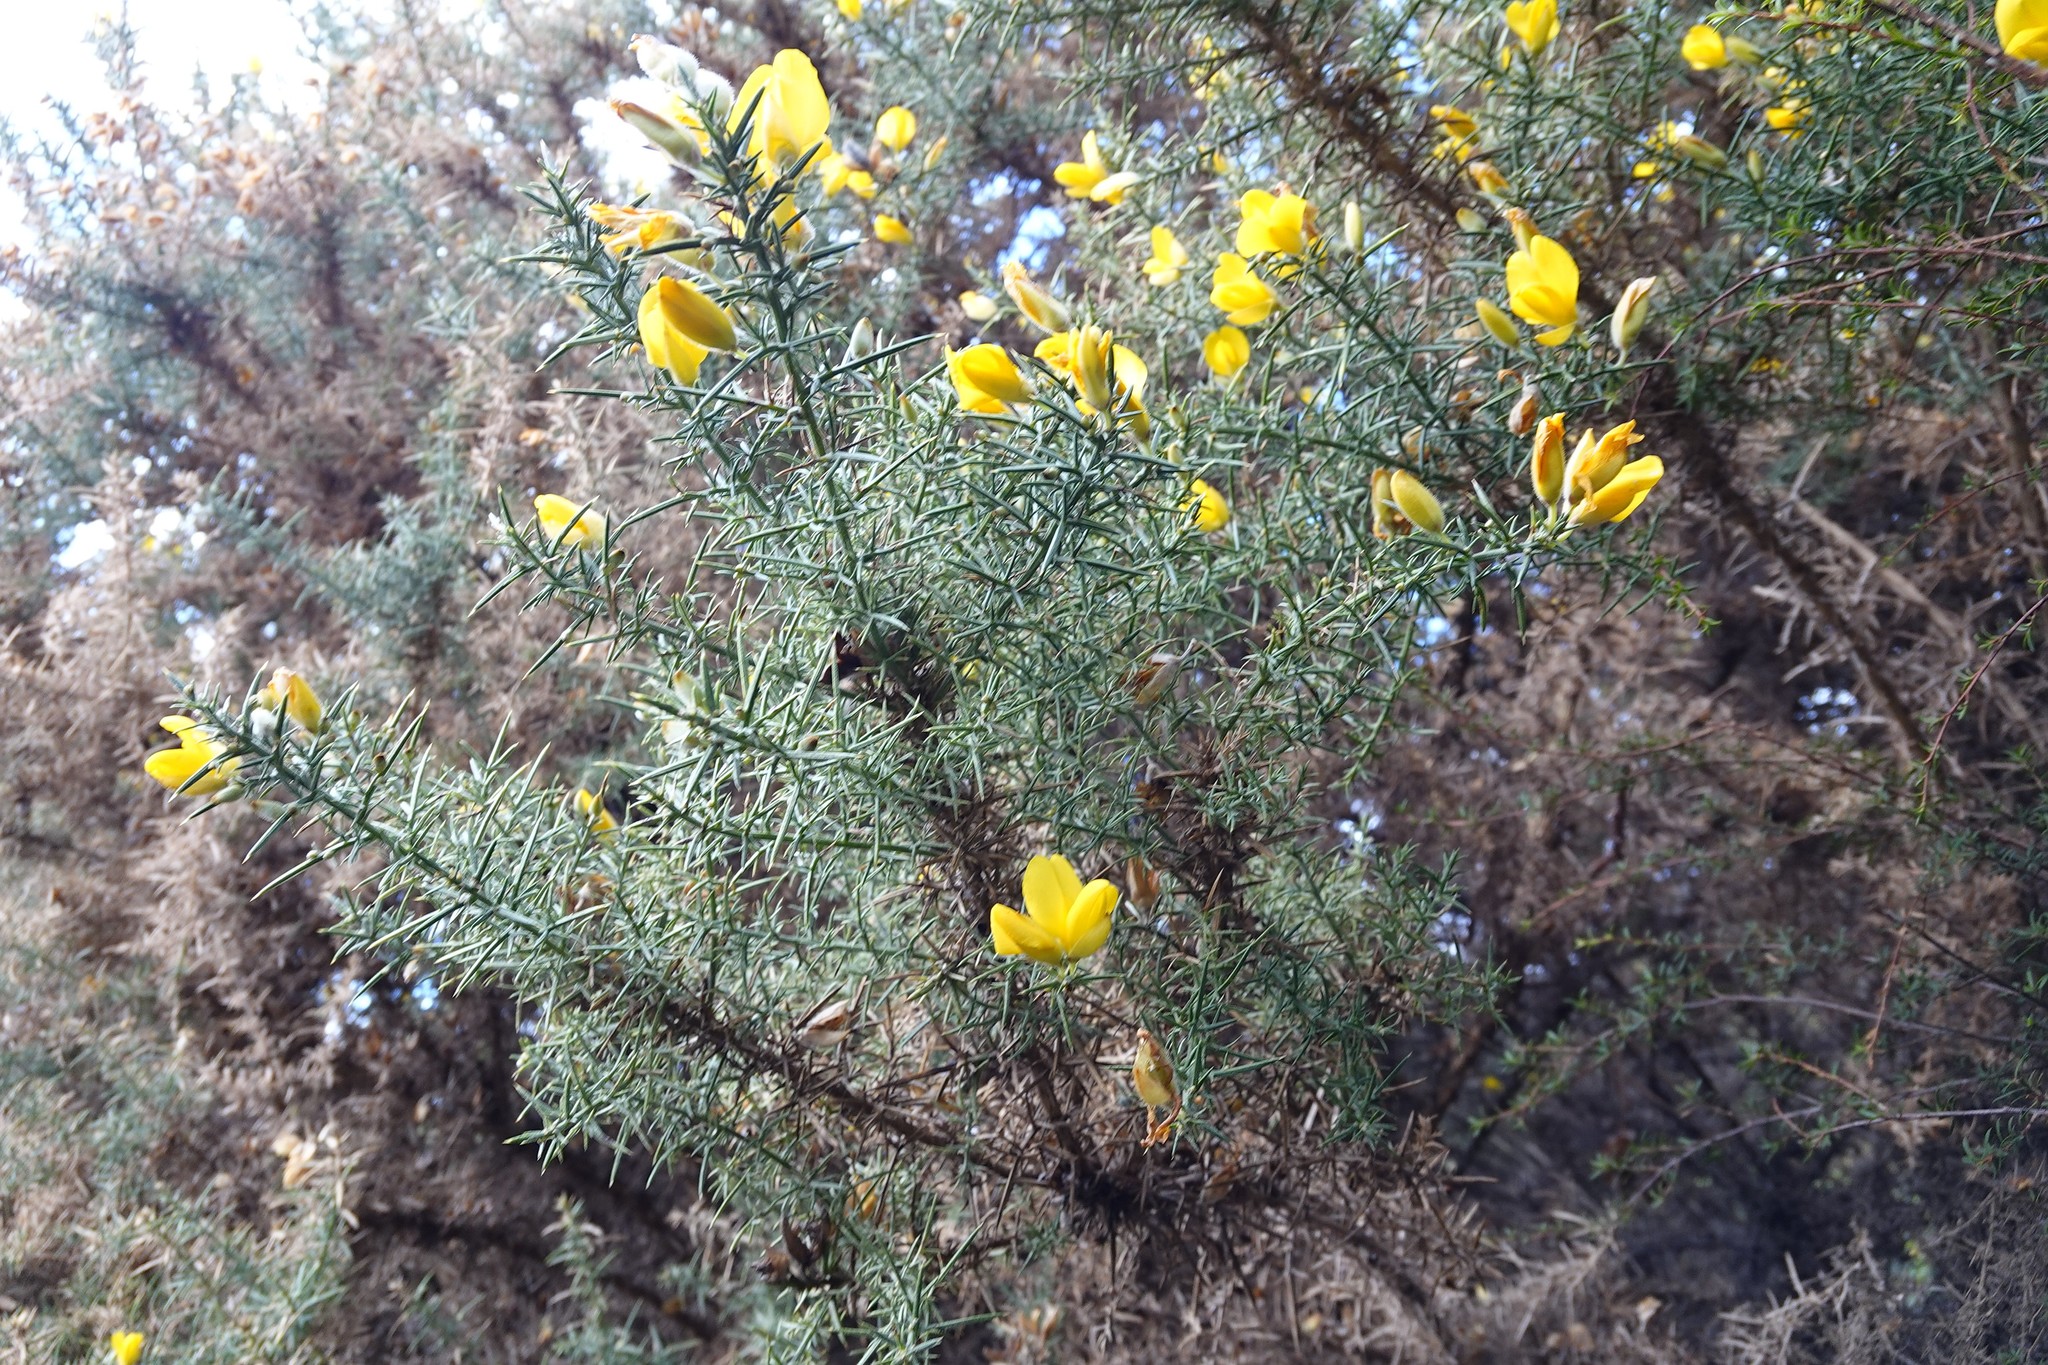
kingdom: Plantae
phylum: Tracheophyta
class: Magnoliopsida
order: Fabales
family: Fabaceae
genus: Ulex
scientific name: Ulex europaeus
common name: Common gorse
